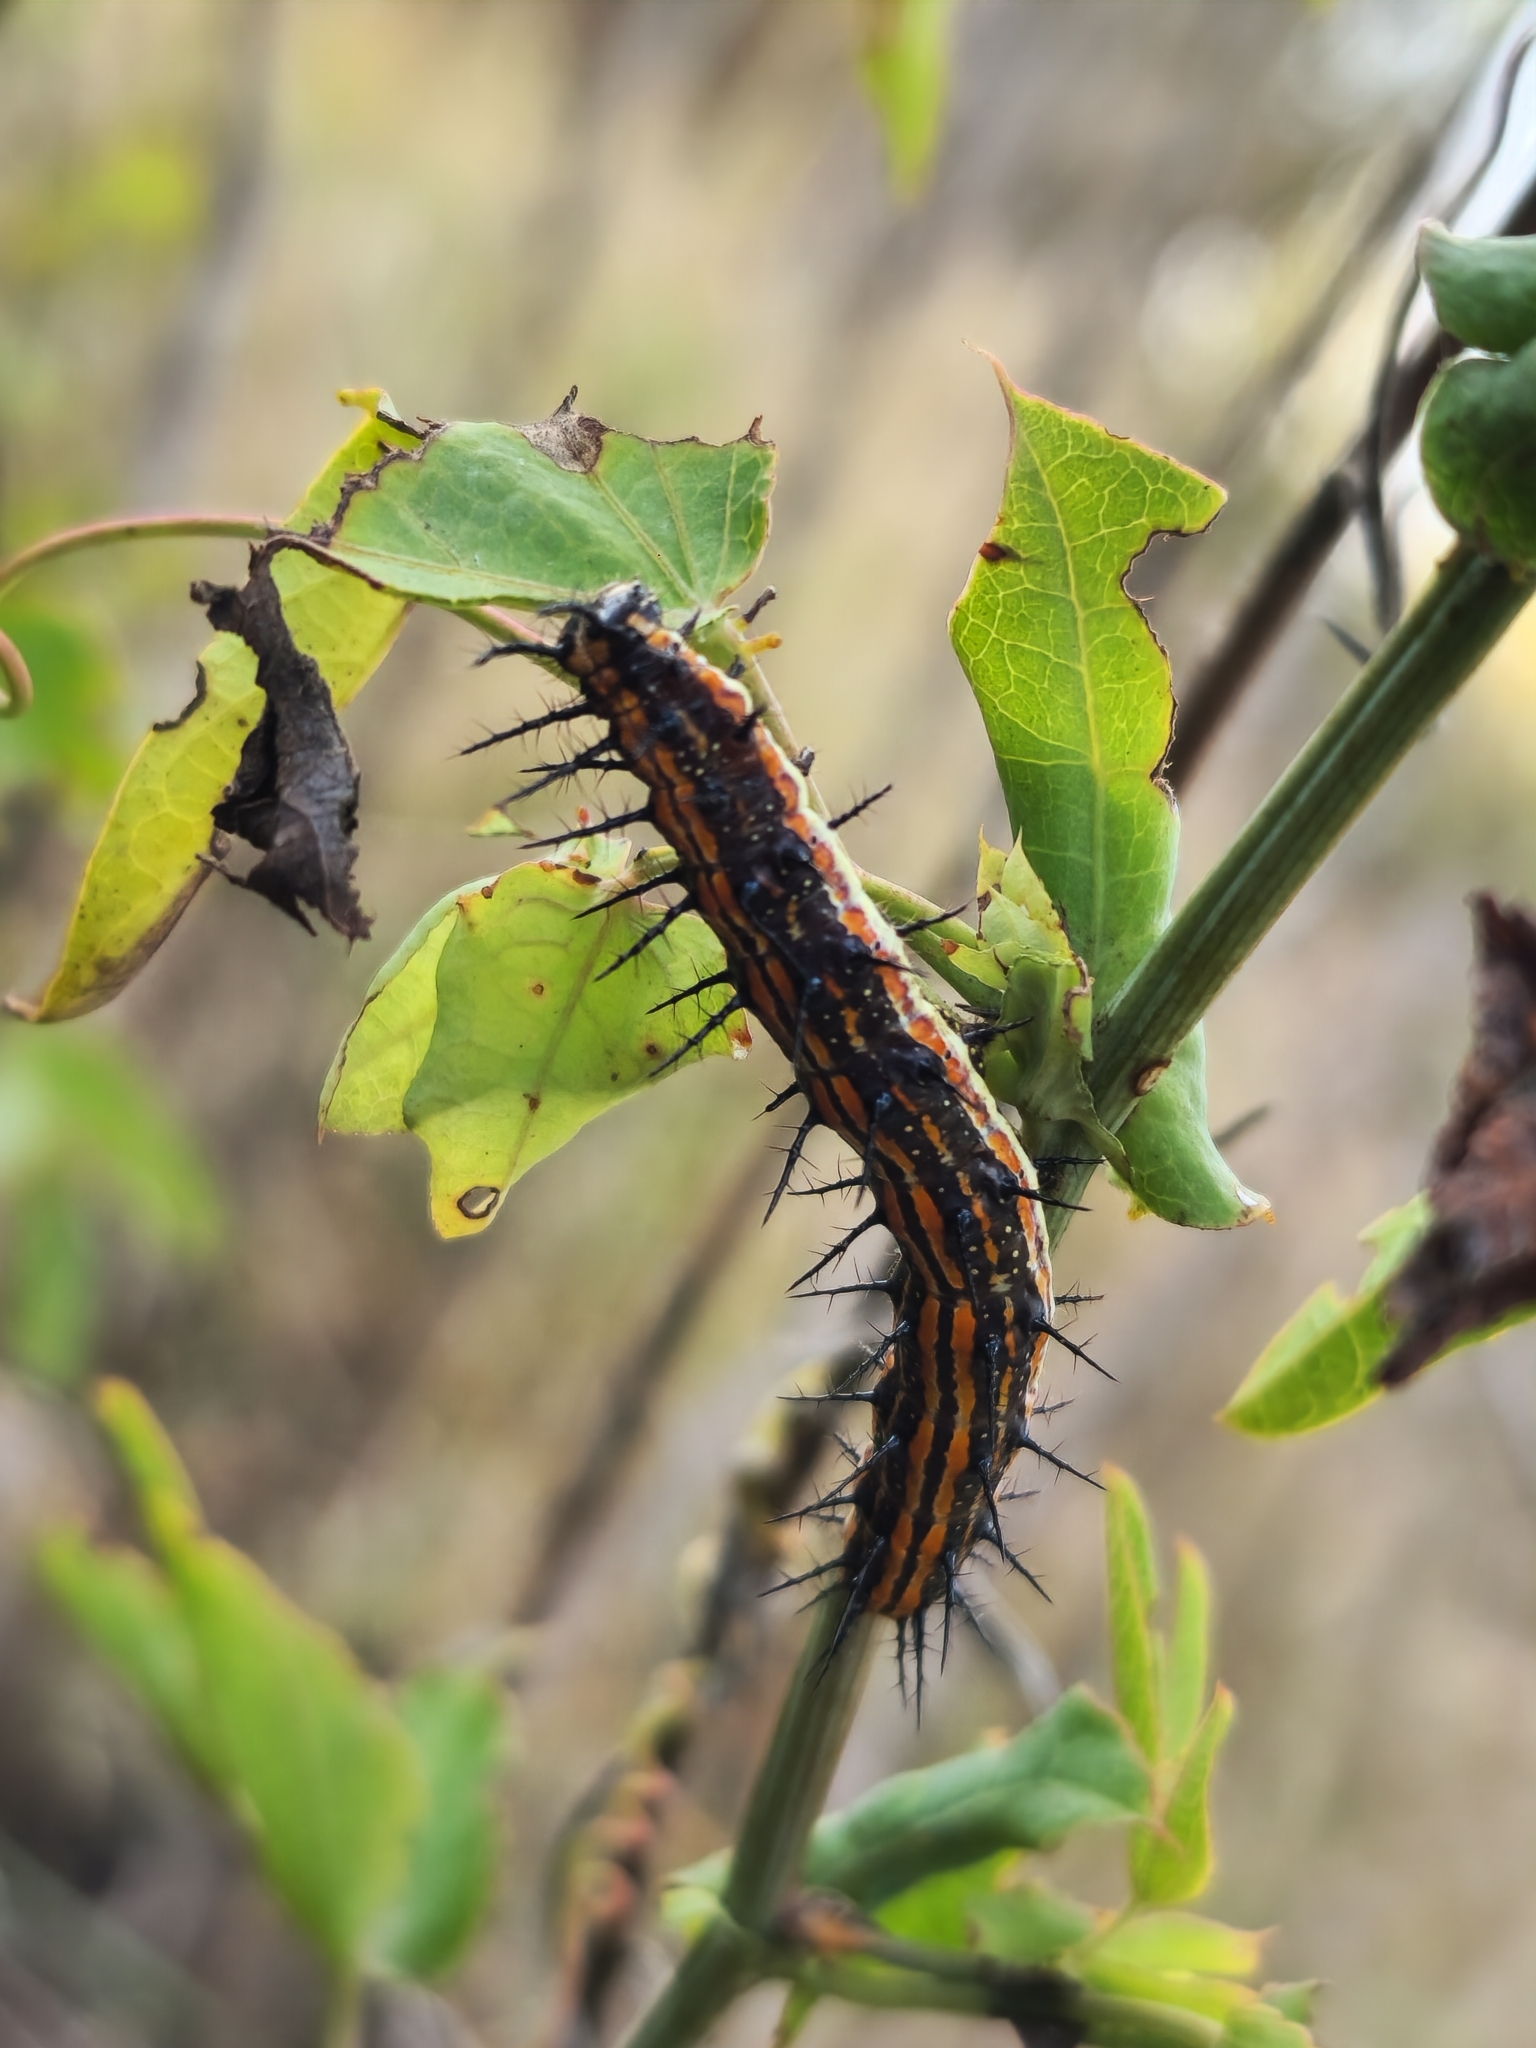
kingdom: Animalia
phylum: Arthropoda
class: Insecta
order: Lepidoptera
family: Nymphalidae
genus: Dione
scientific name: Dione vanillae
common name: Gulf fritillary
